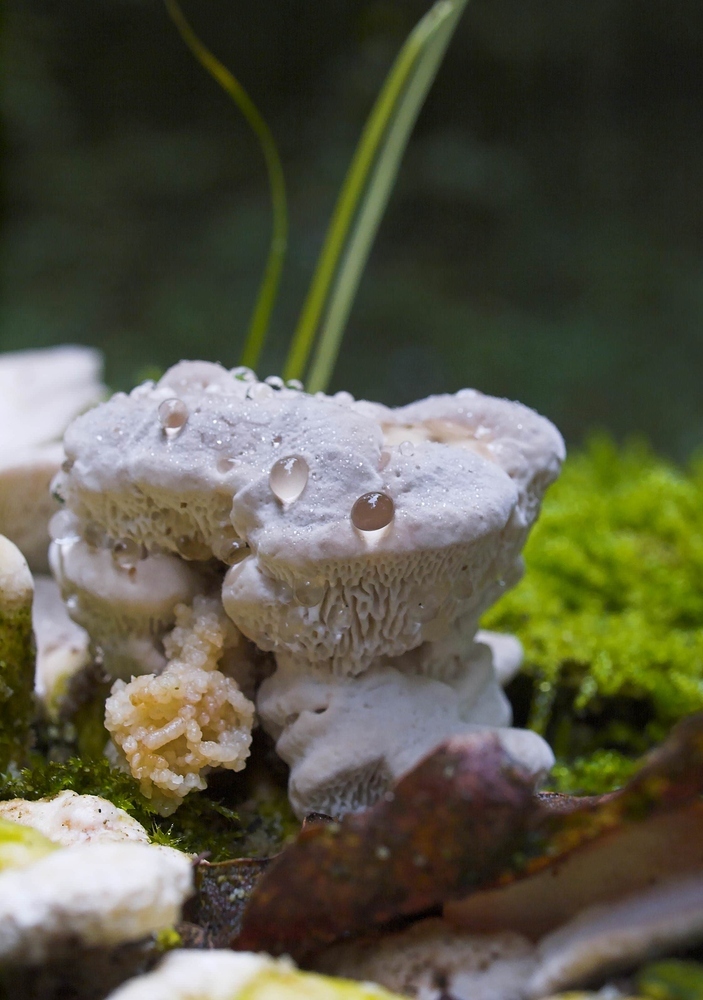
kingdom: Fungi
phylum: Basidiomycota
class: Agaricomycetes
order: Polyporales
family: Polyporaceae
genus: Trametes
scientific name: Trametes gibbosa
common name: Lumpy bracket
